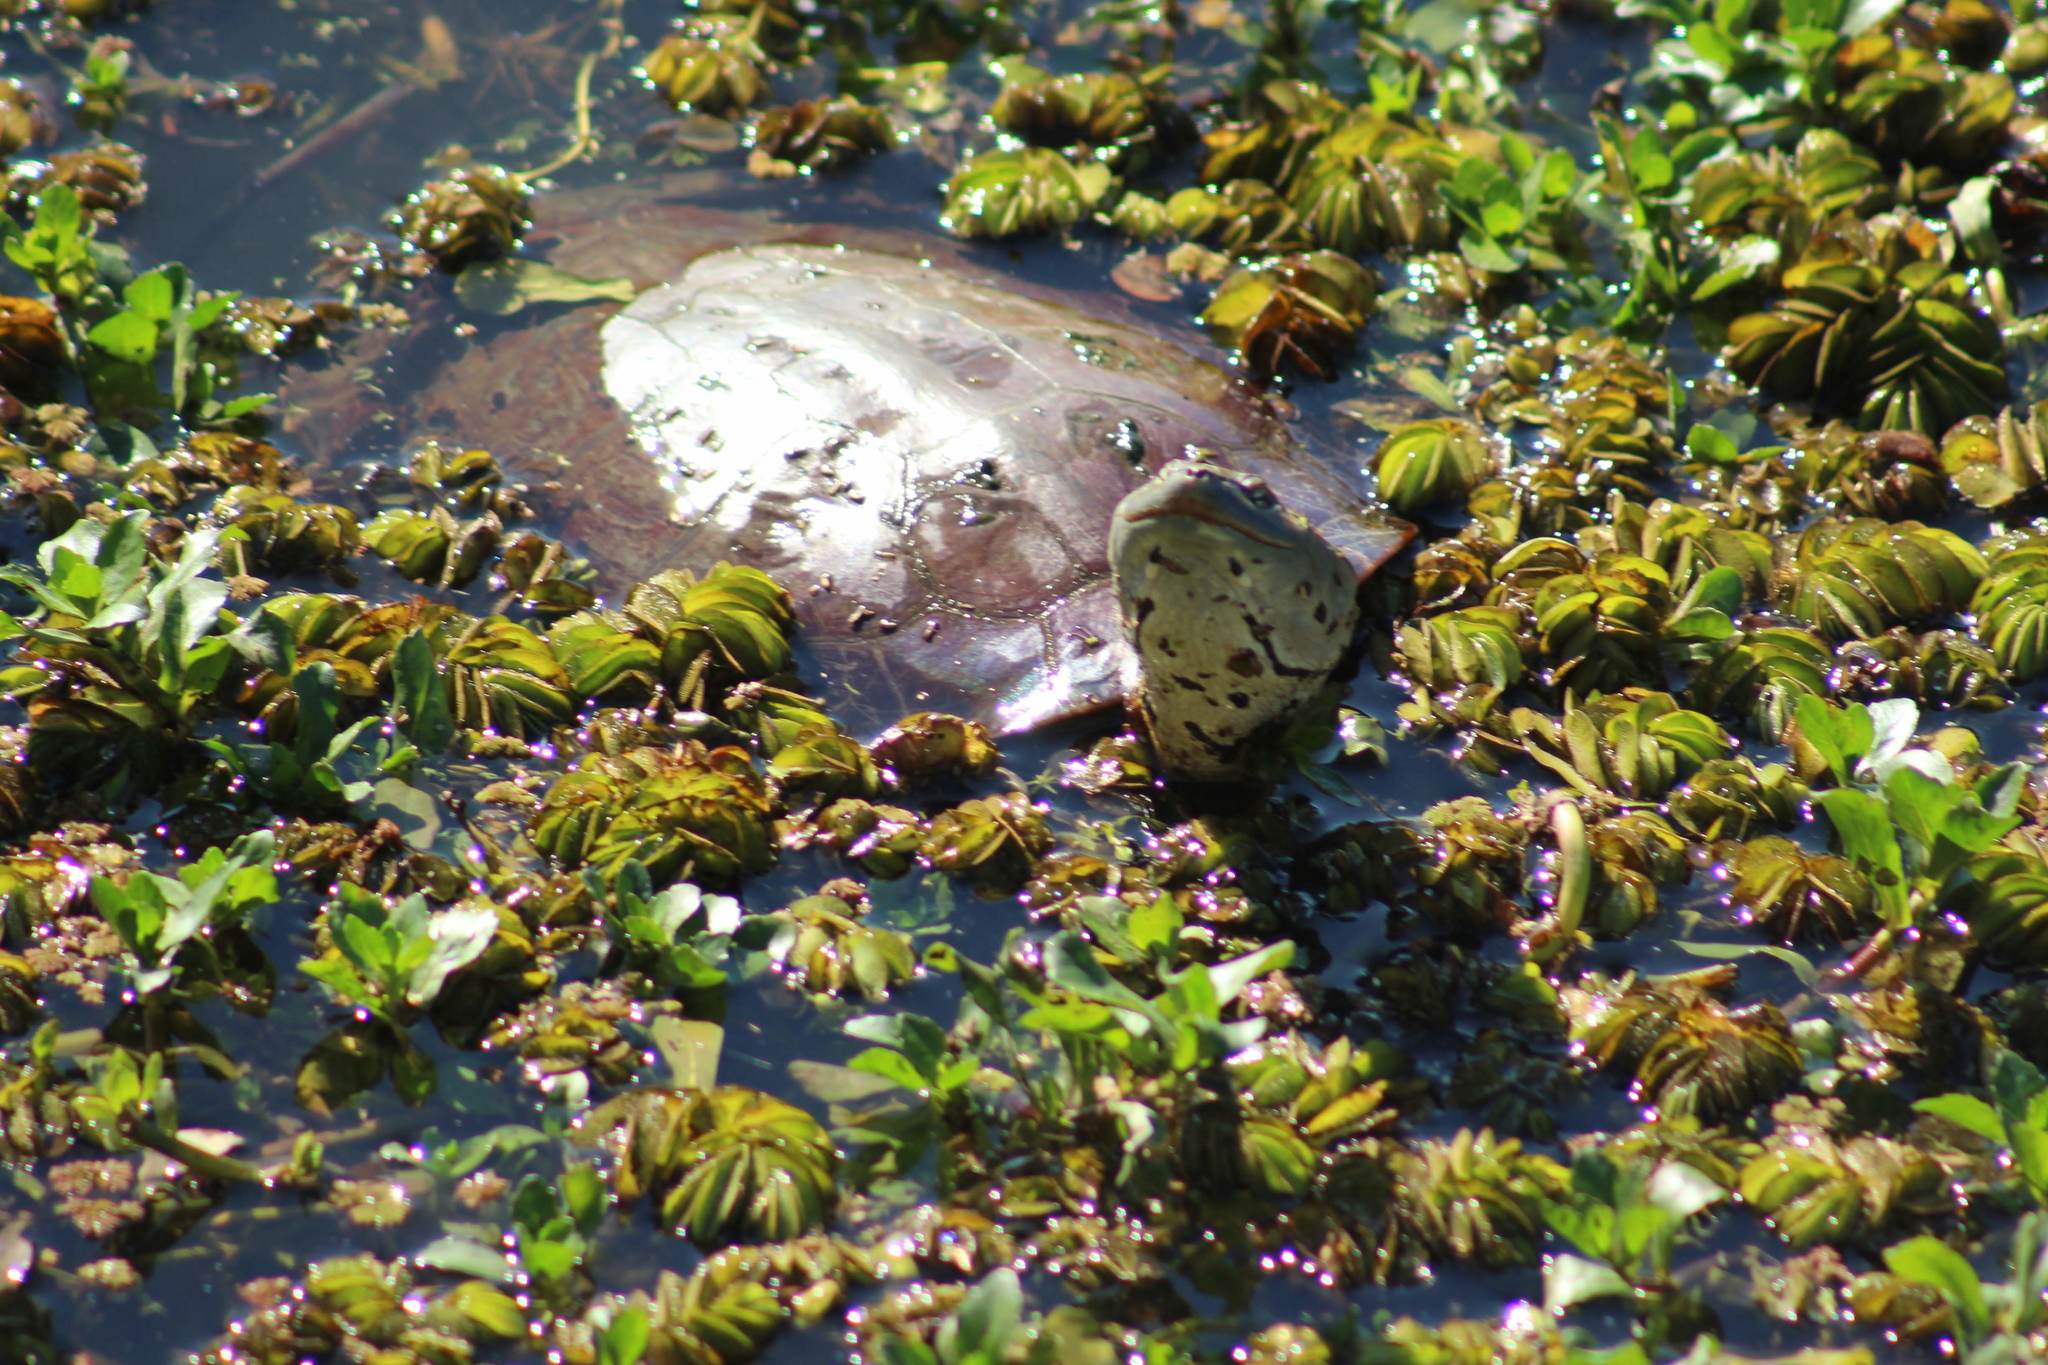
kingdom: Animalia
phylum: Chordata
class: Testudines
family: Chelidae
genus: Phrynops
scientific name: Phrynops hilarii
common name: Side-necked turtle of saint hillaire
